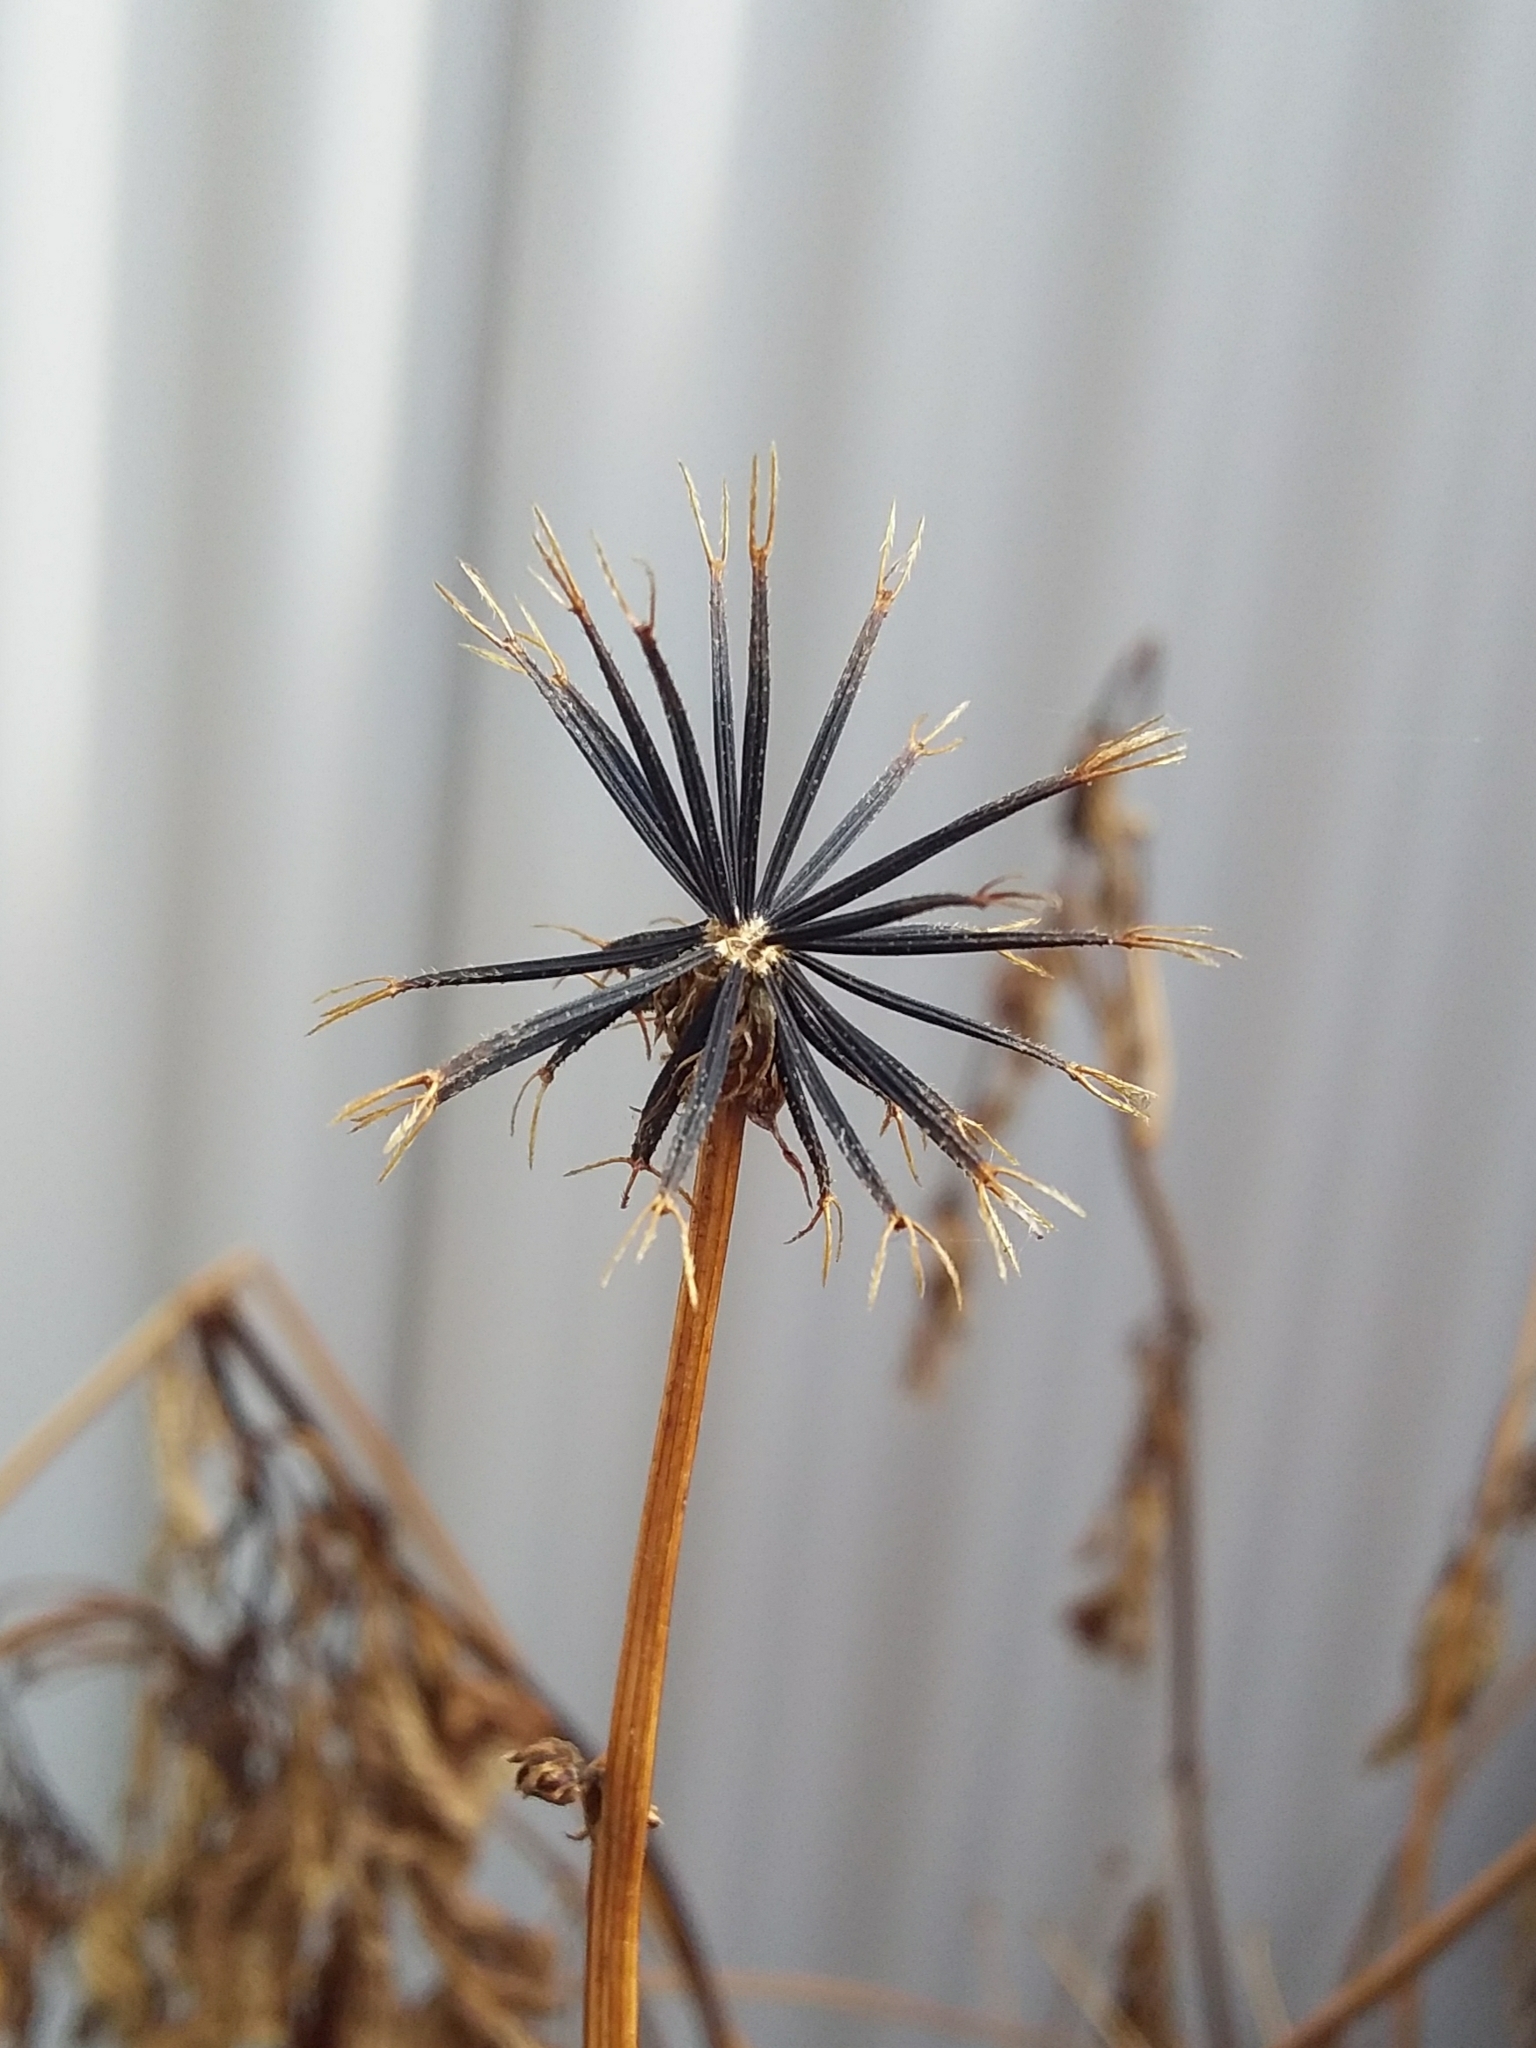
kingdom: Plantae
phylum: Tracheophyta
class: Magnoliopsida
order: Asterales
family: Asteraceae
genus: Bidens
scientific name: Bidens pilosa
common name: Black-jack
